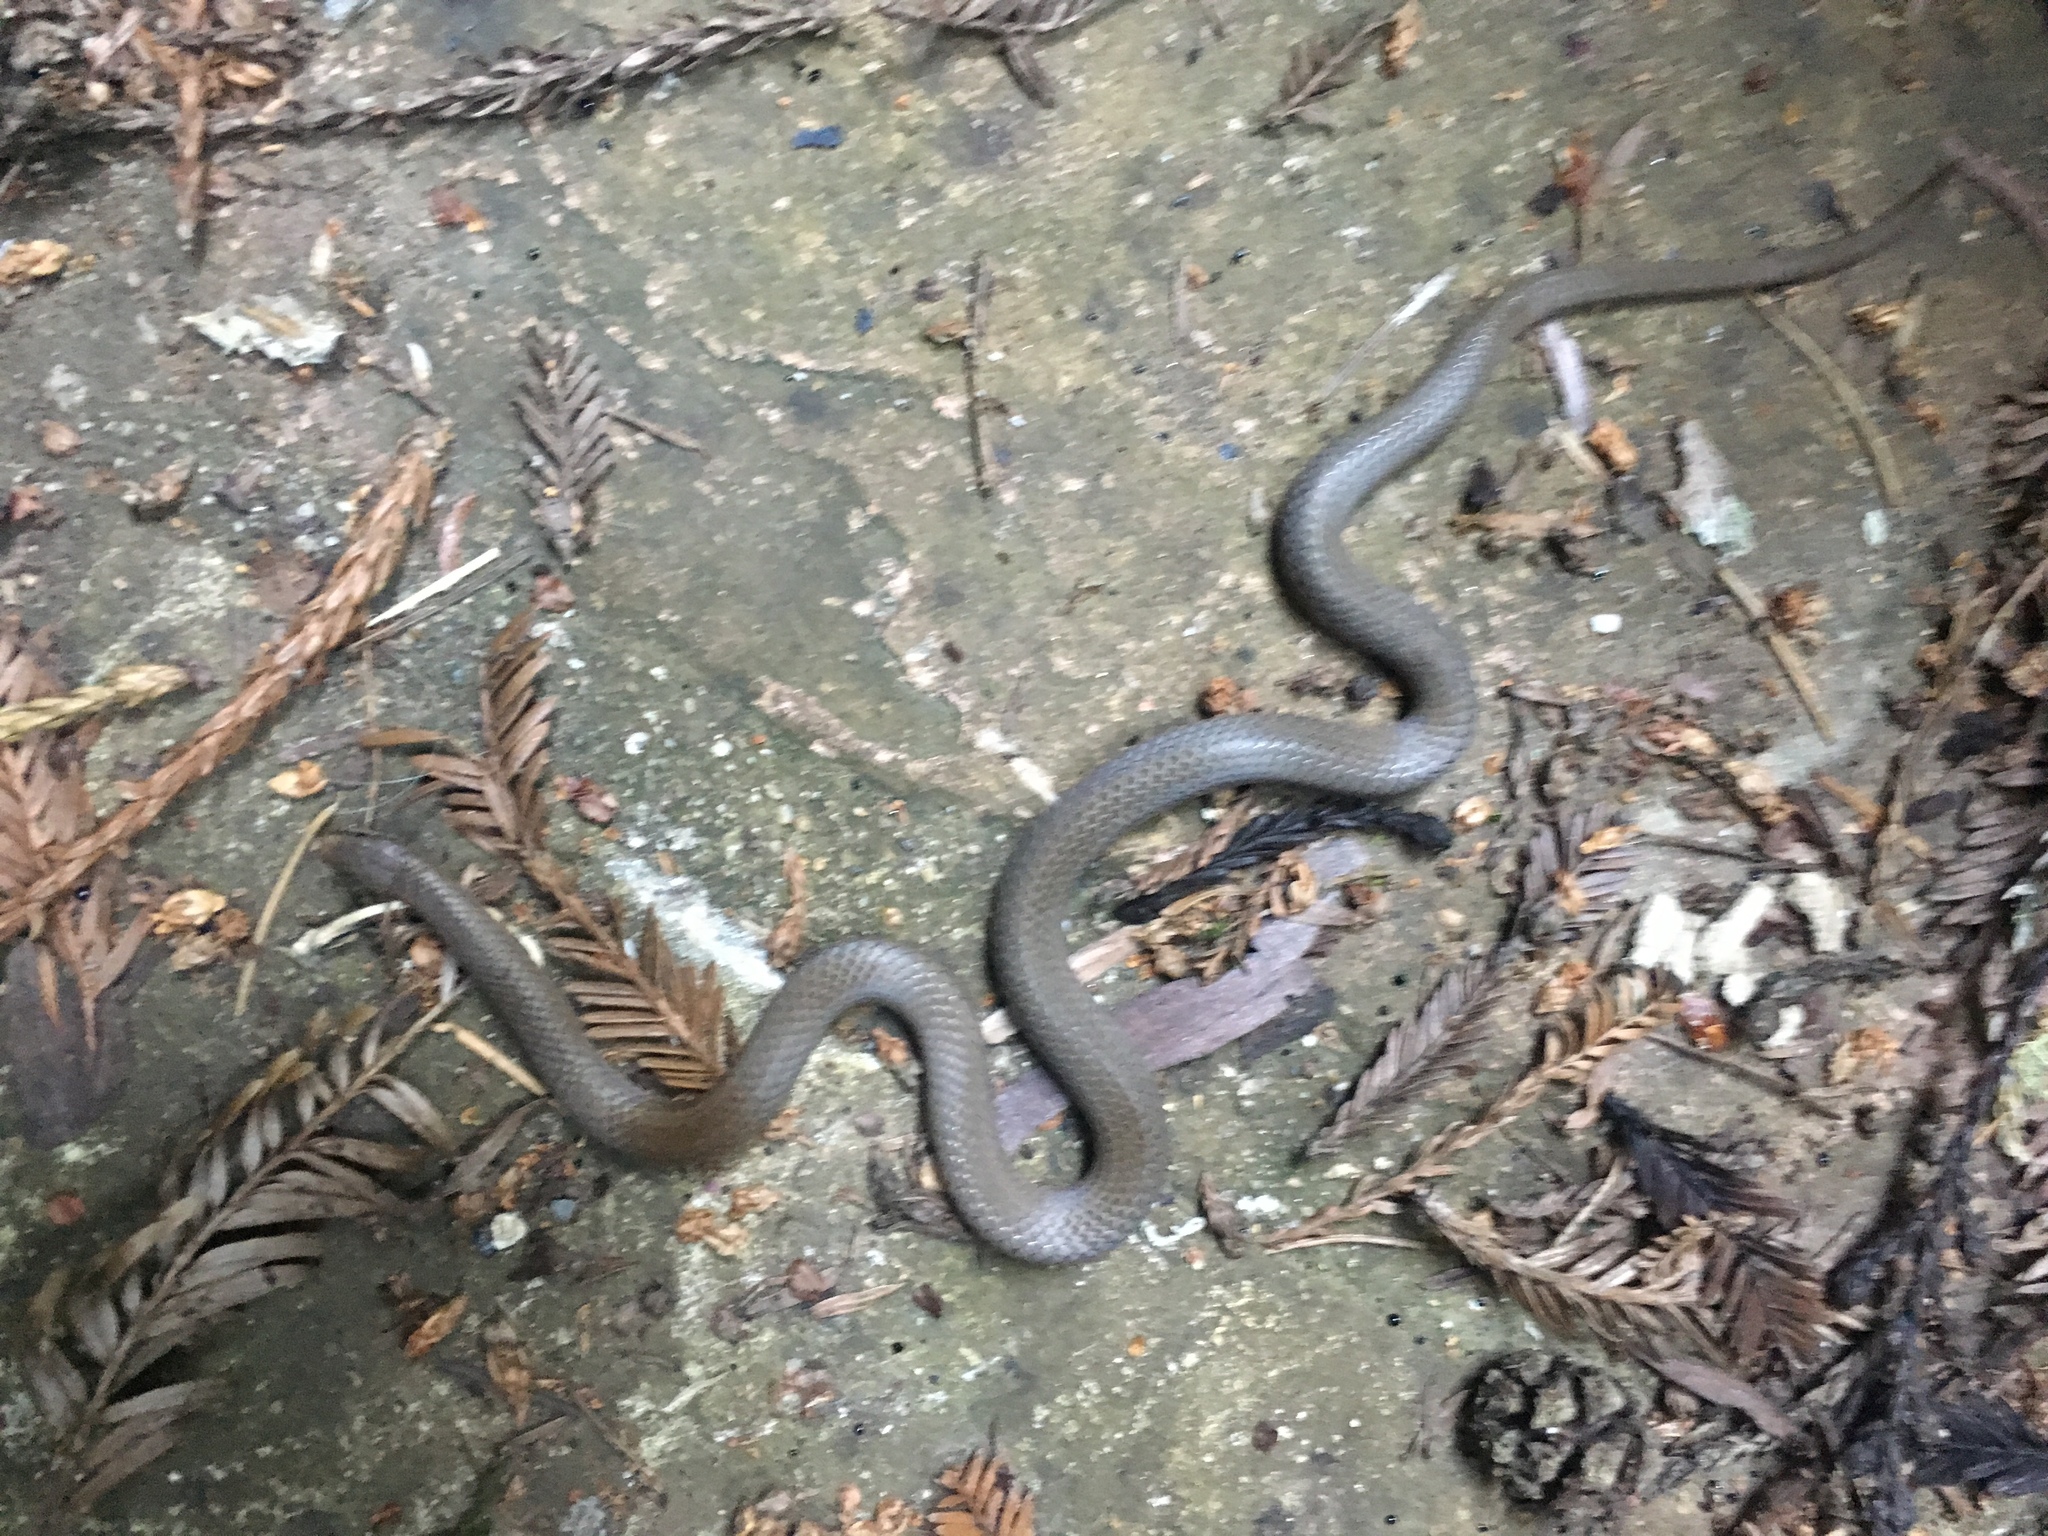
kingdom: Animalia
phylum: Chordata
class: Squamata
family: Colubridae
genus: Contia
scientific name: Contia longicaudae
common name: Forest sharp-tailed snake
